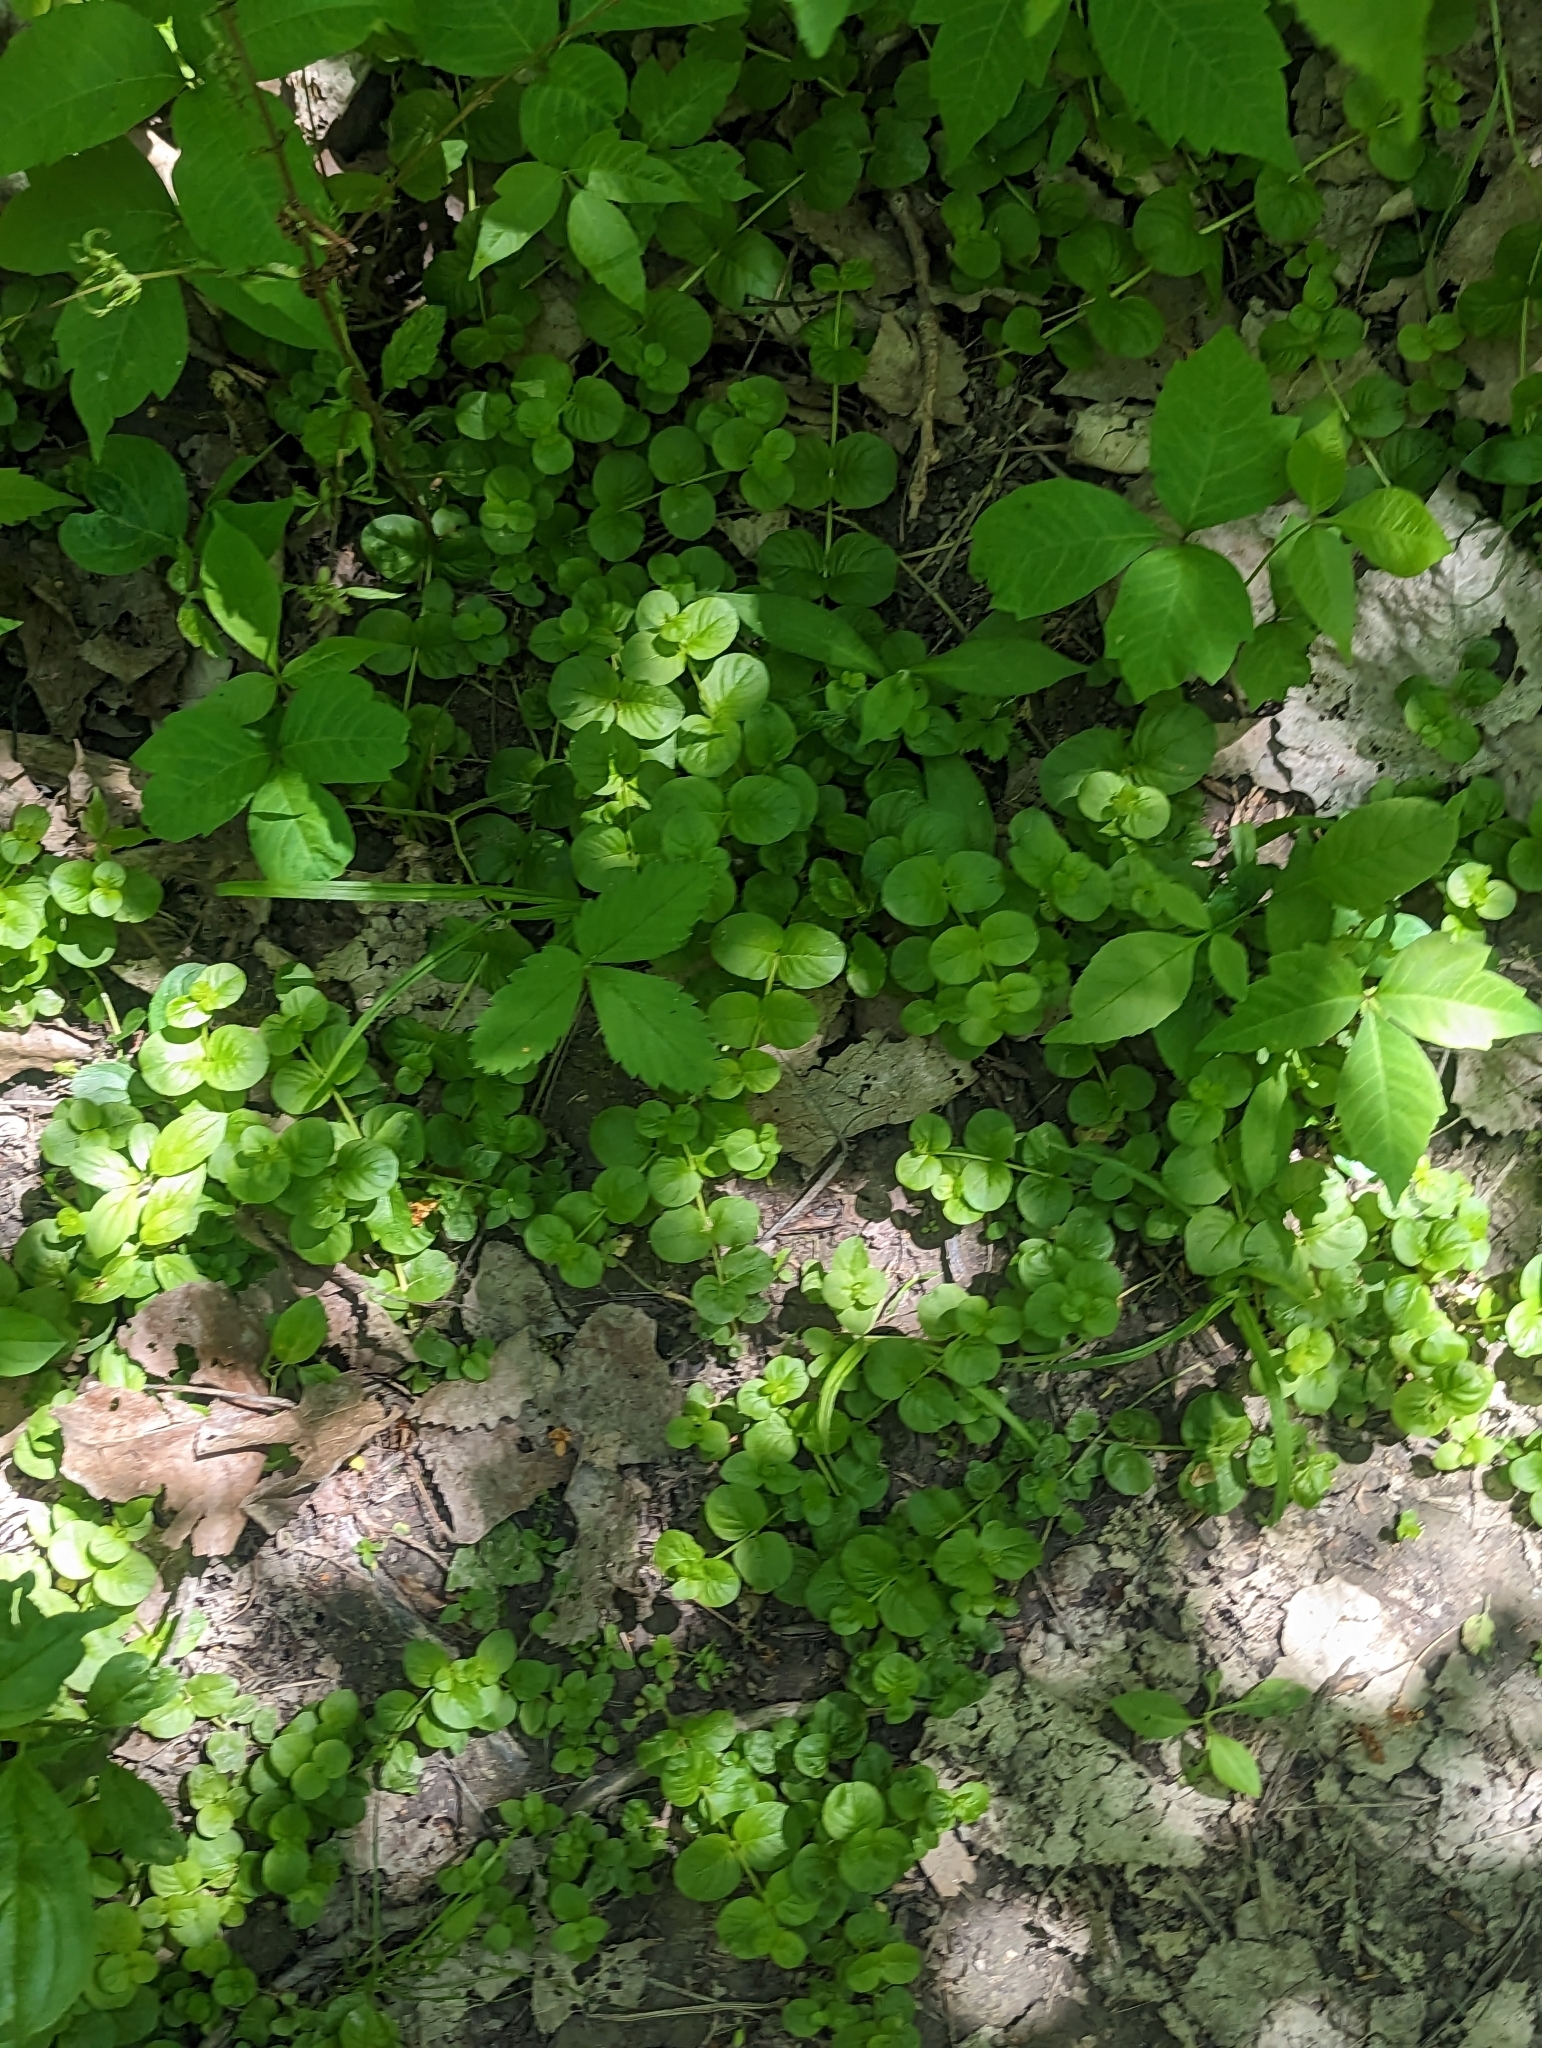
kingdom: Plantae
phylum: Tracheophyta
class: Magnoliopsida
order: Ericales
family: Primulaceae
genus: Lysimachia
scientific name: Lysimachia nummularia
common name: Moneywort
